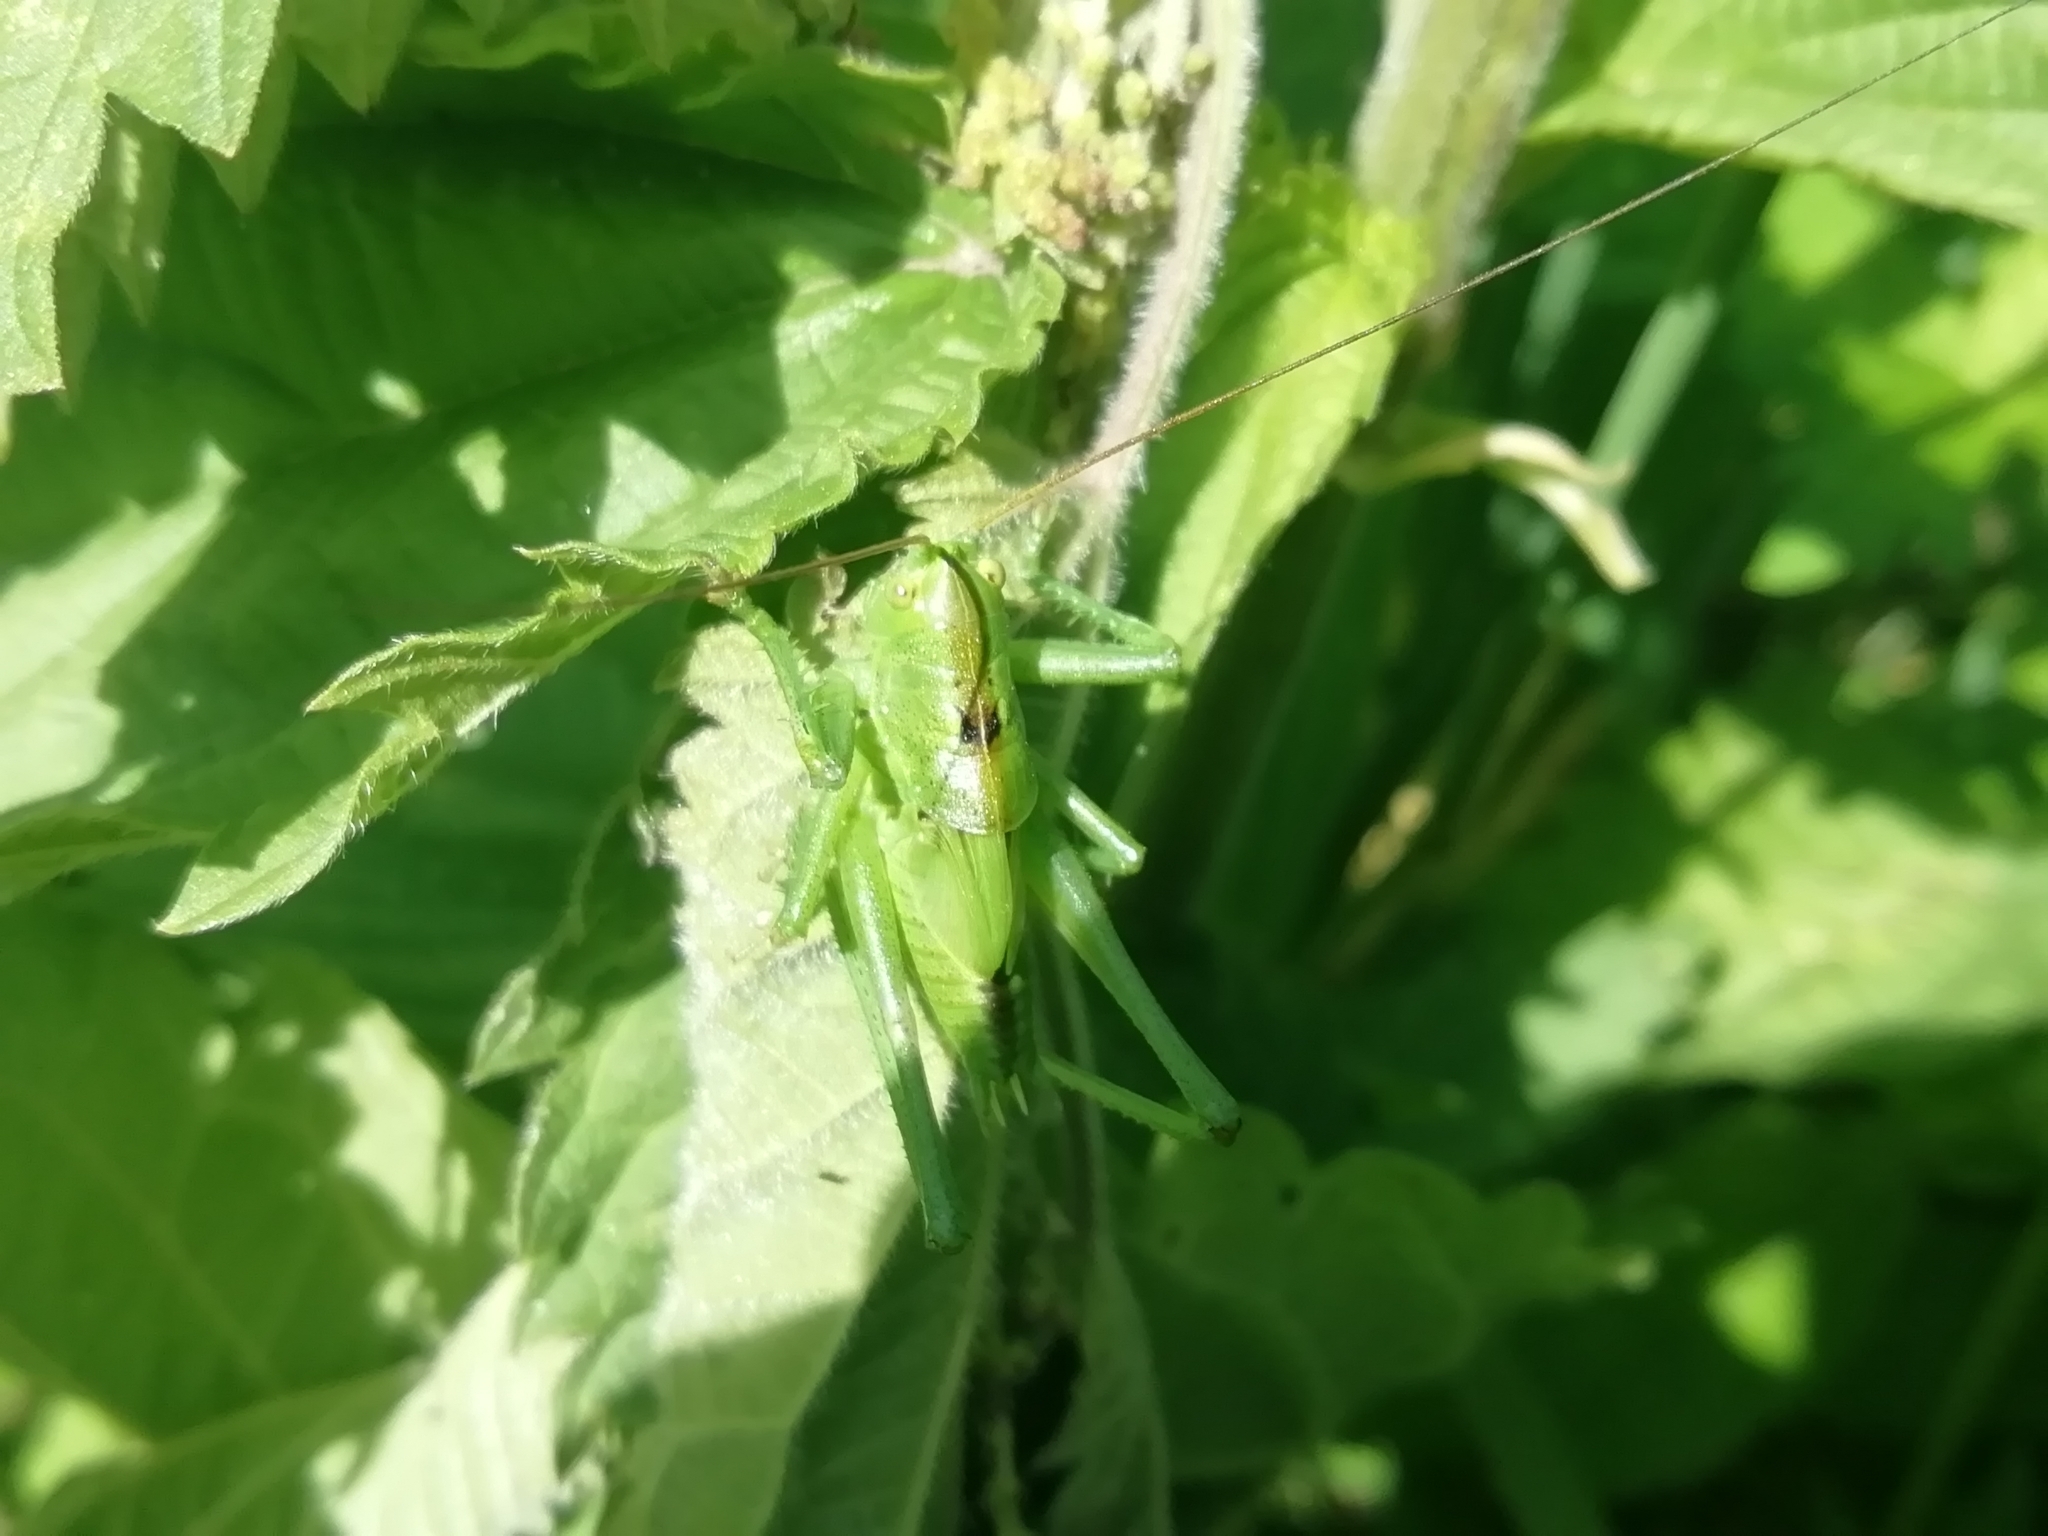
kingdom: Animalia
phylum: Arthropoda
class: Insecta
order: Orthoptera
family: Tettigoniidae
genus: Tettigonia
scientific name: Tettigonia cantans
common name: Upland green bush-cricket
